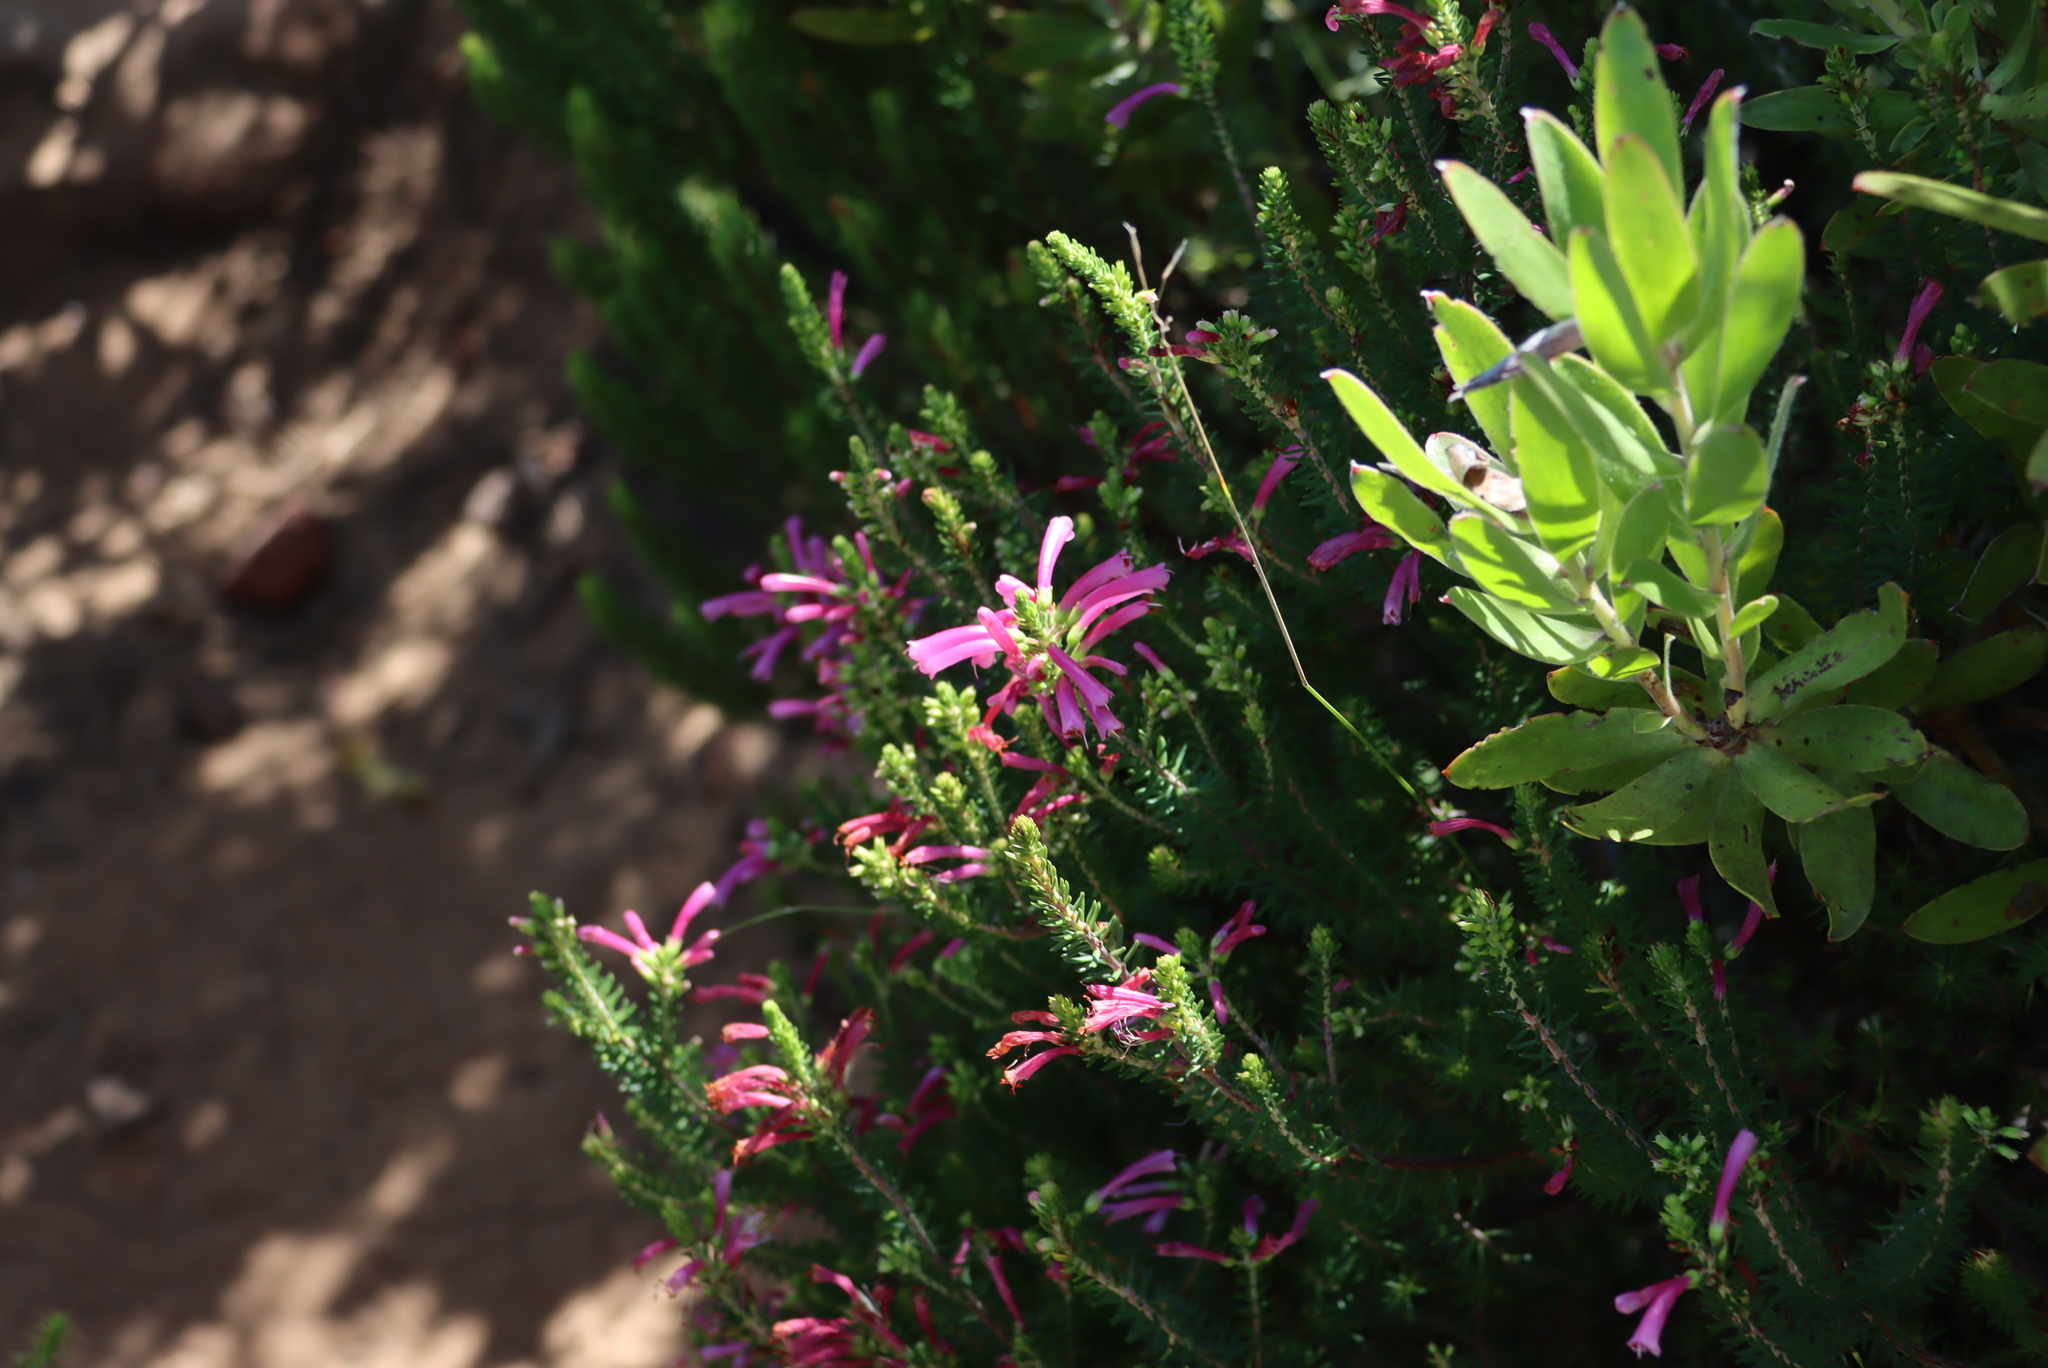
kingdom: Plantae
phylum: Tracheophyta
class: Magnoliopsida
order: Ericales
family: Ericaceae
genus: Erica
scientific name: Erica abietina
